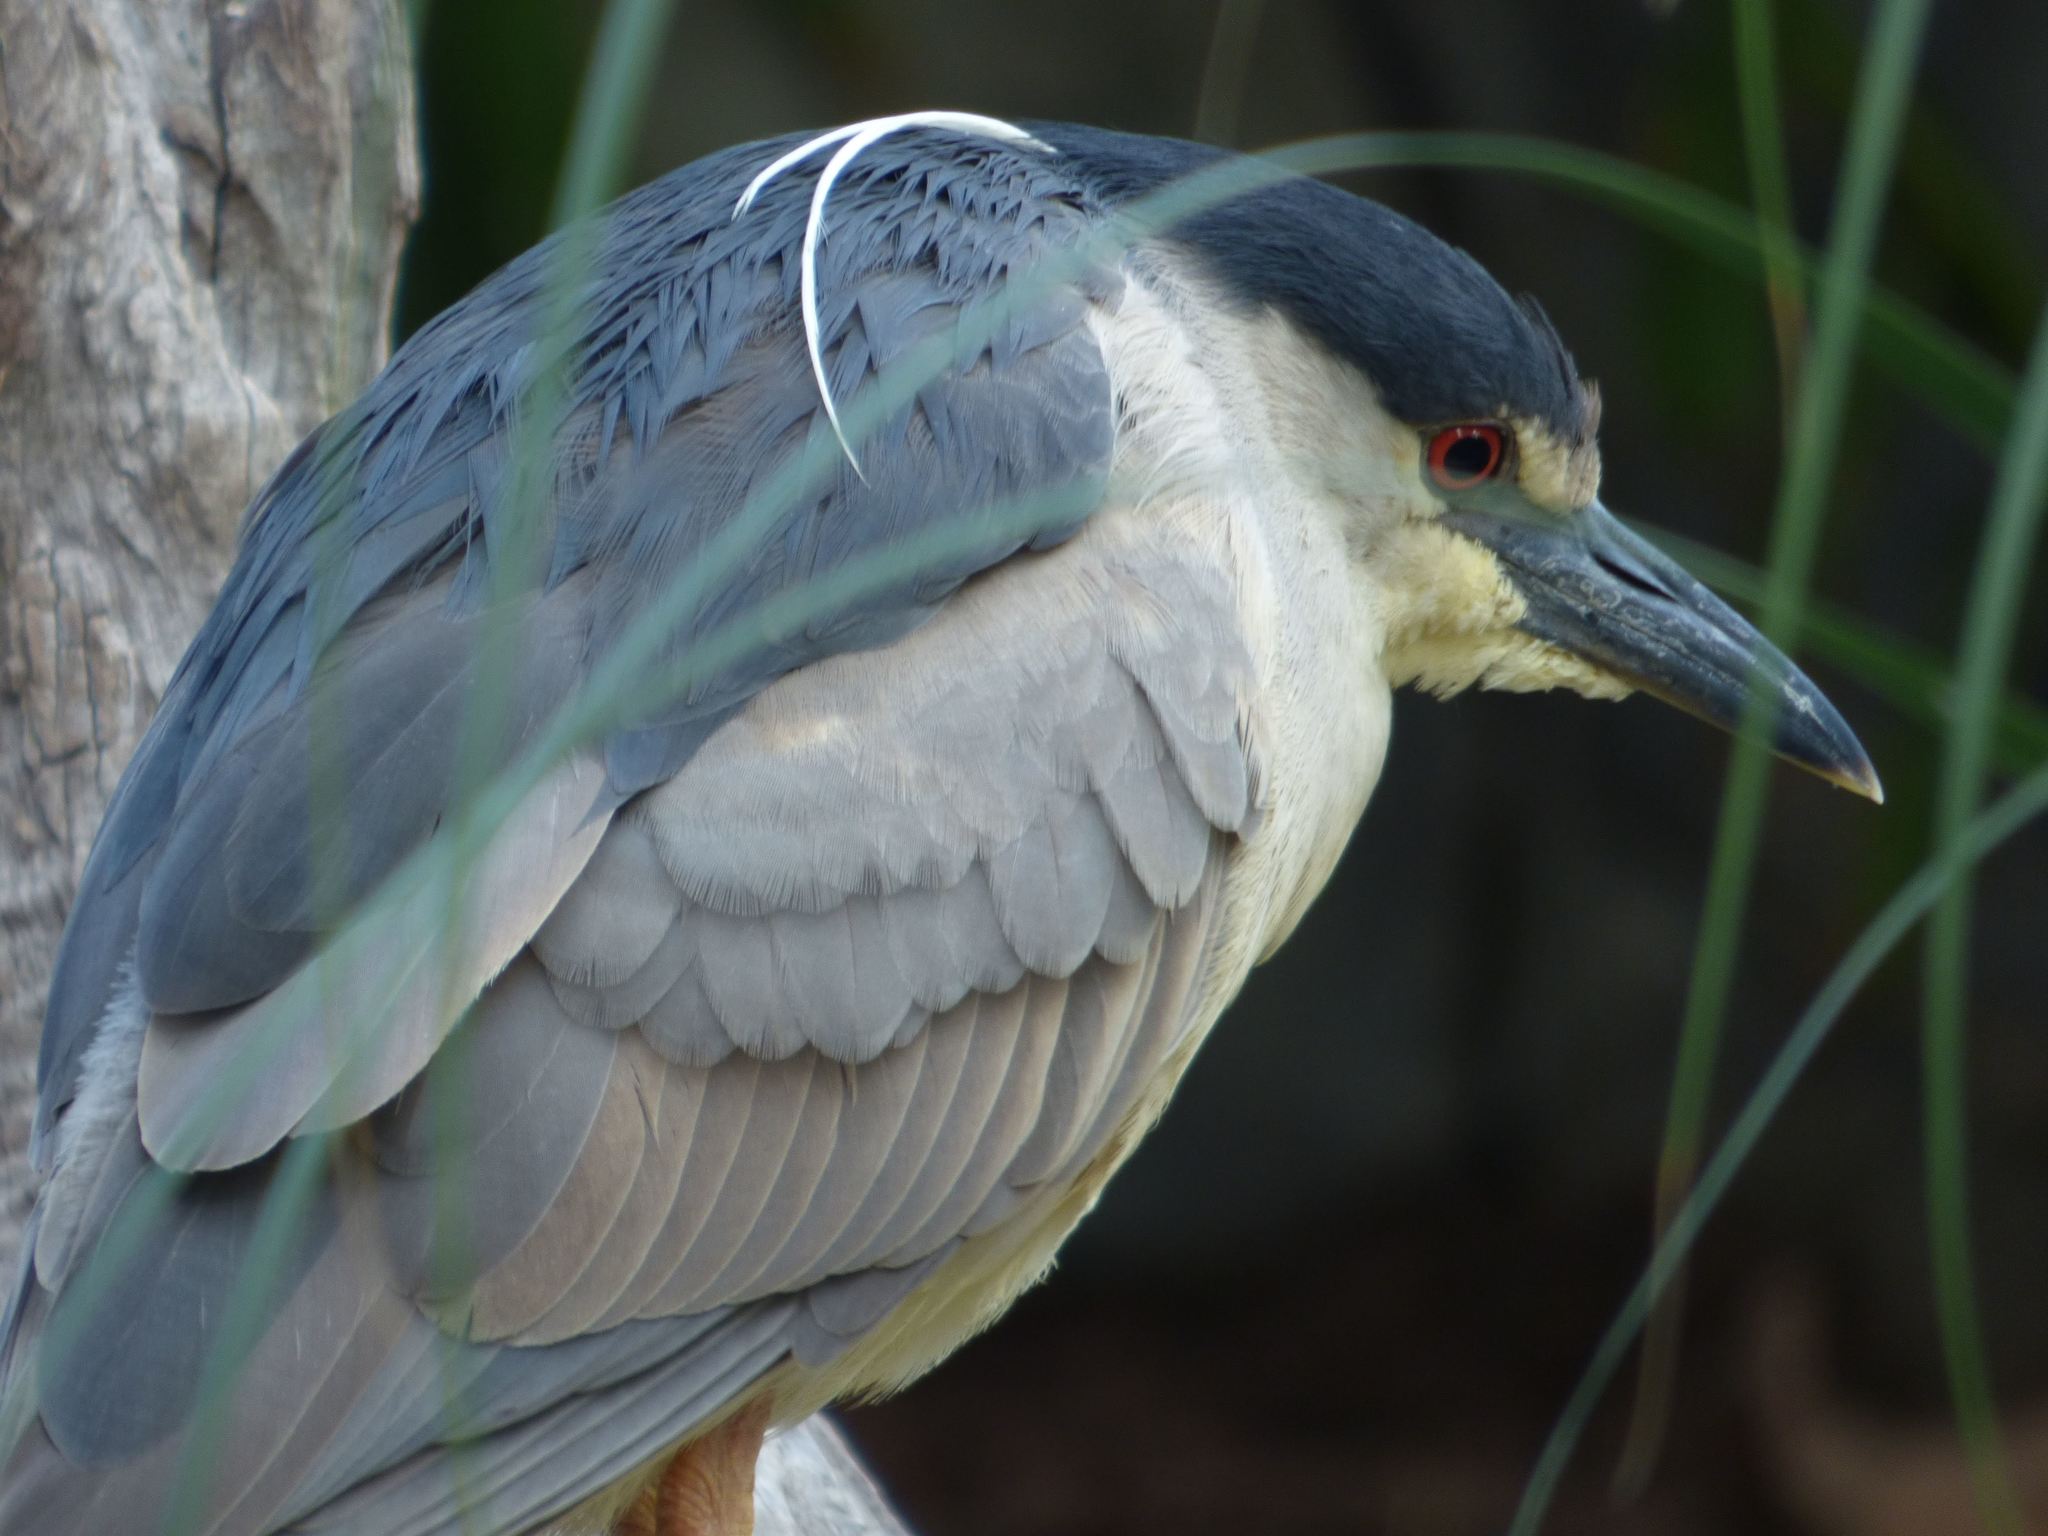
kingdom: Animalia
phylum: Chordata
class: Aves
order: Pelecaniformes
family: Ardeidae
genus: Nycticorax
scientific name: Nycticorax nycticorax
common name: Black-crowned night heron
